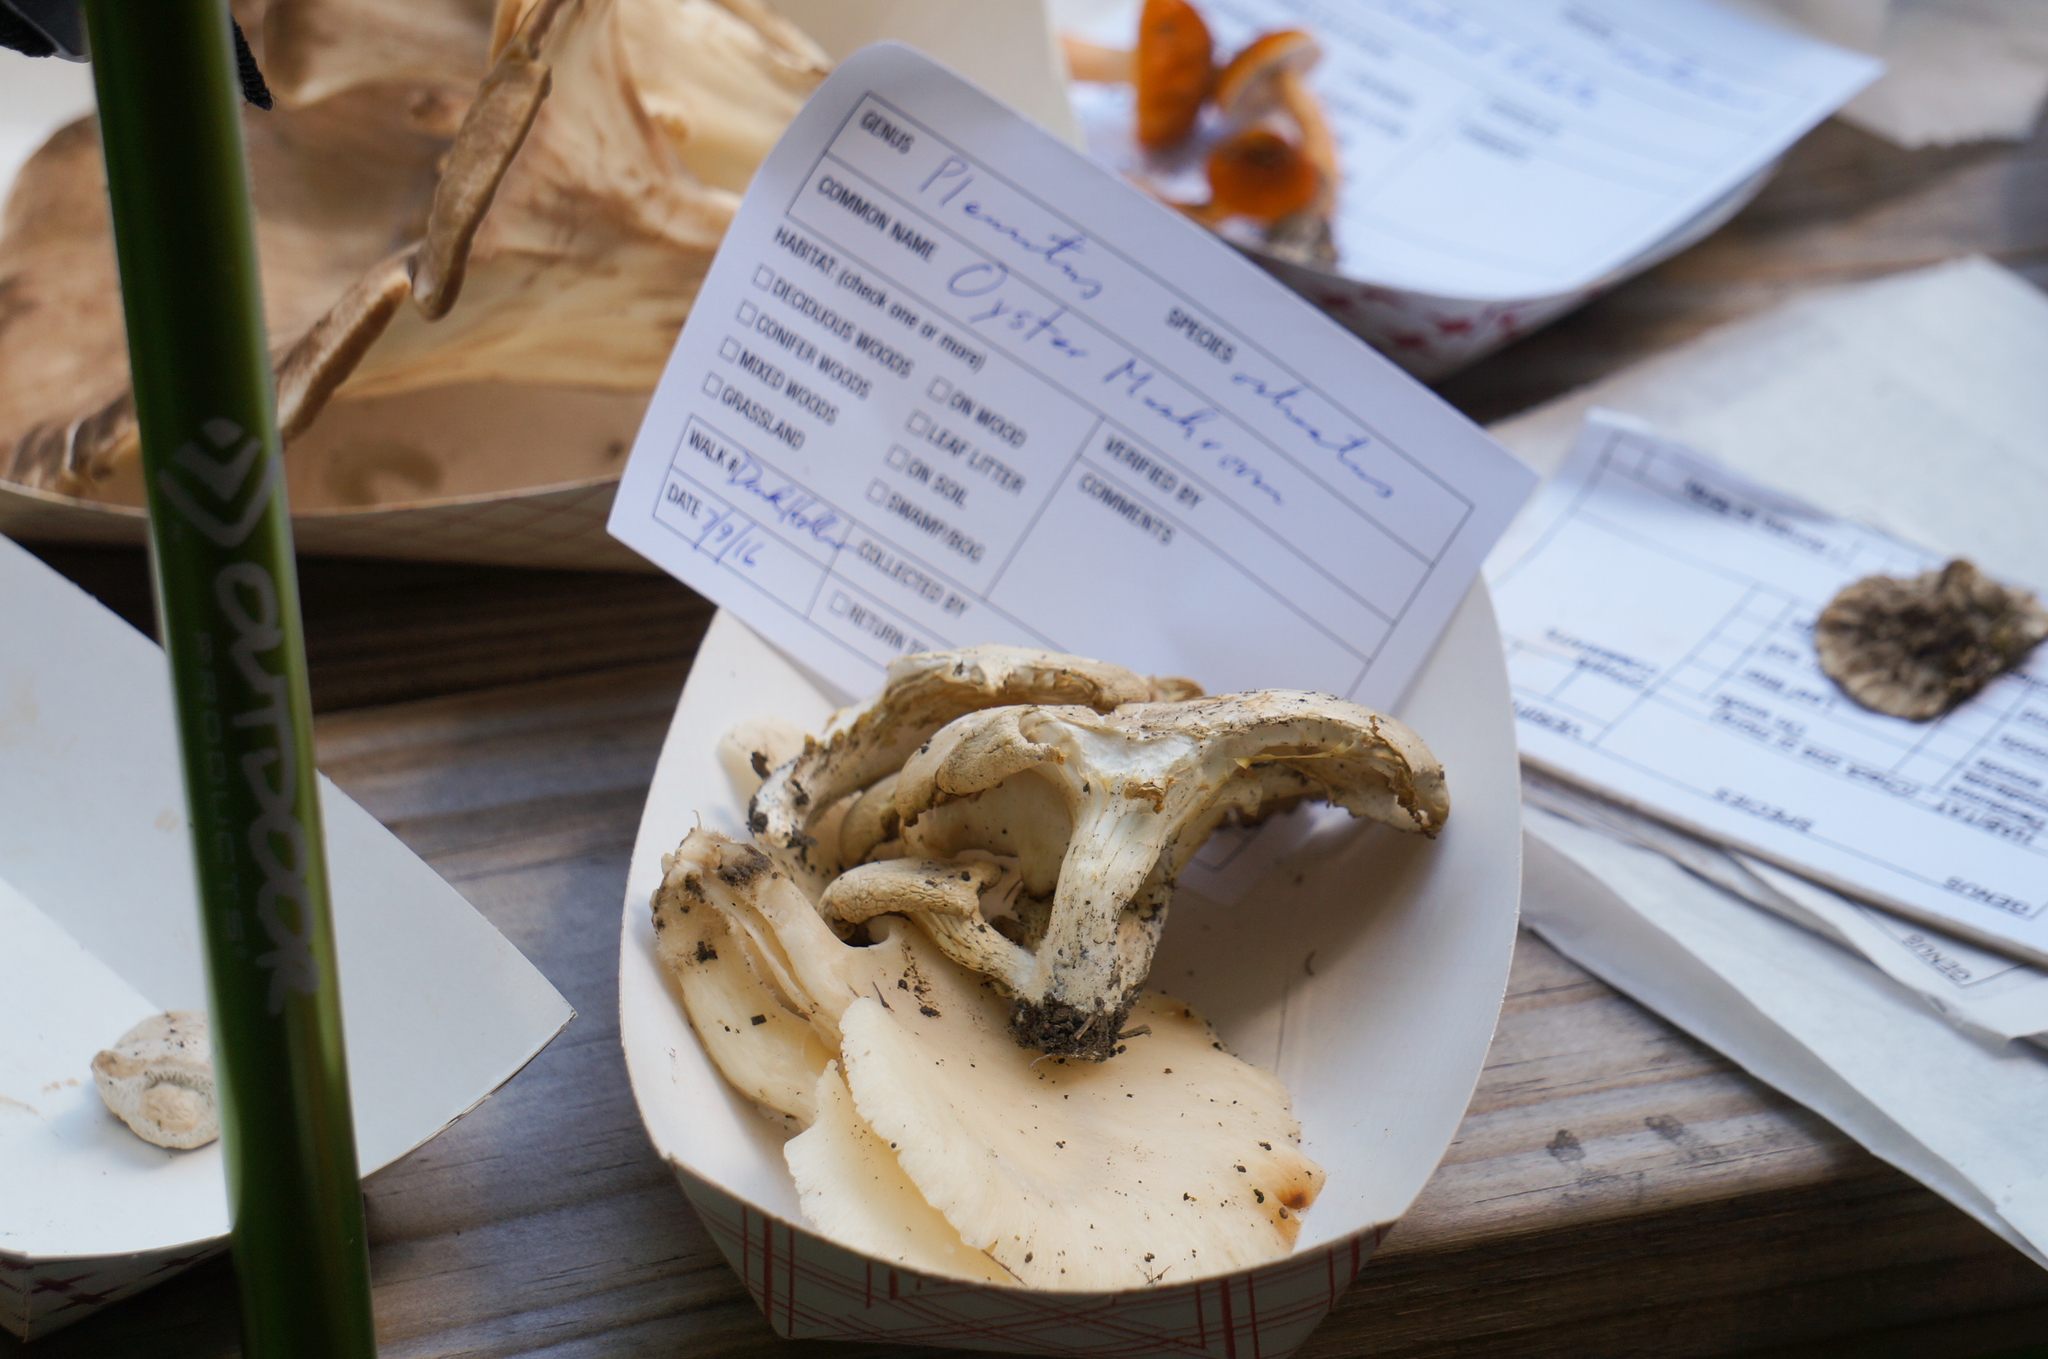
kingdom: Fungi
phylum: Basidiomycota
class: Agaricomycetes
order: Agaricales
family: Pleurotaceae
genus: Pleurotus
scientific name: Pleurotus pulmonarius
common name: Pale oyster
